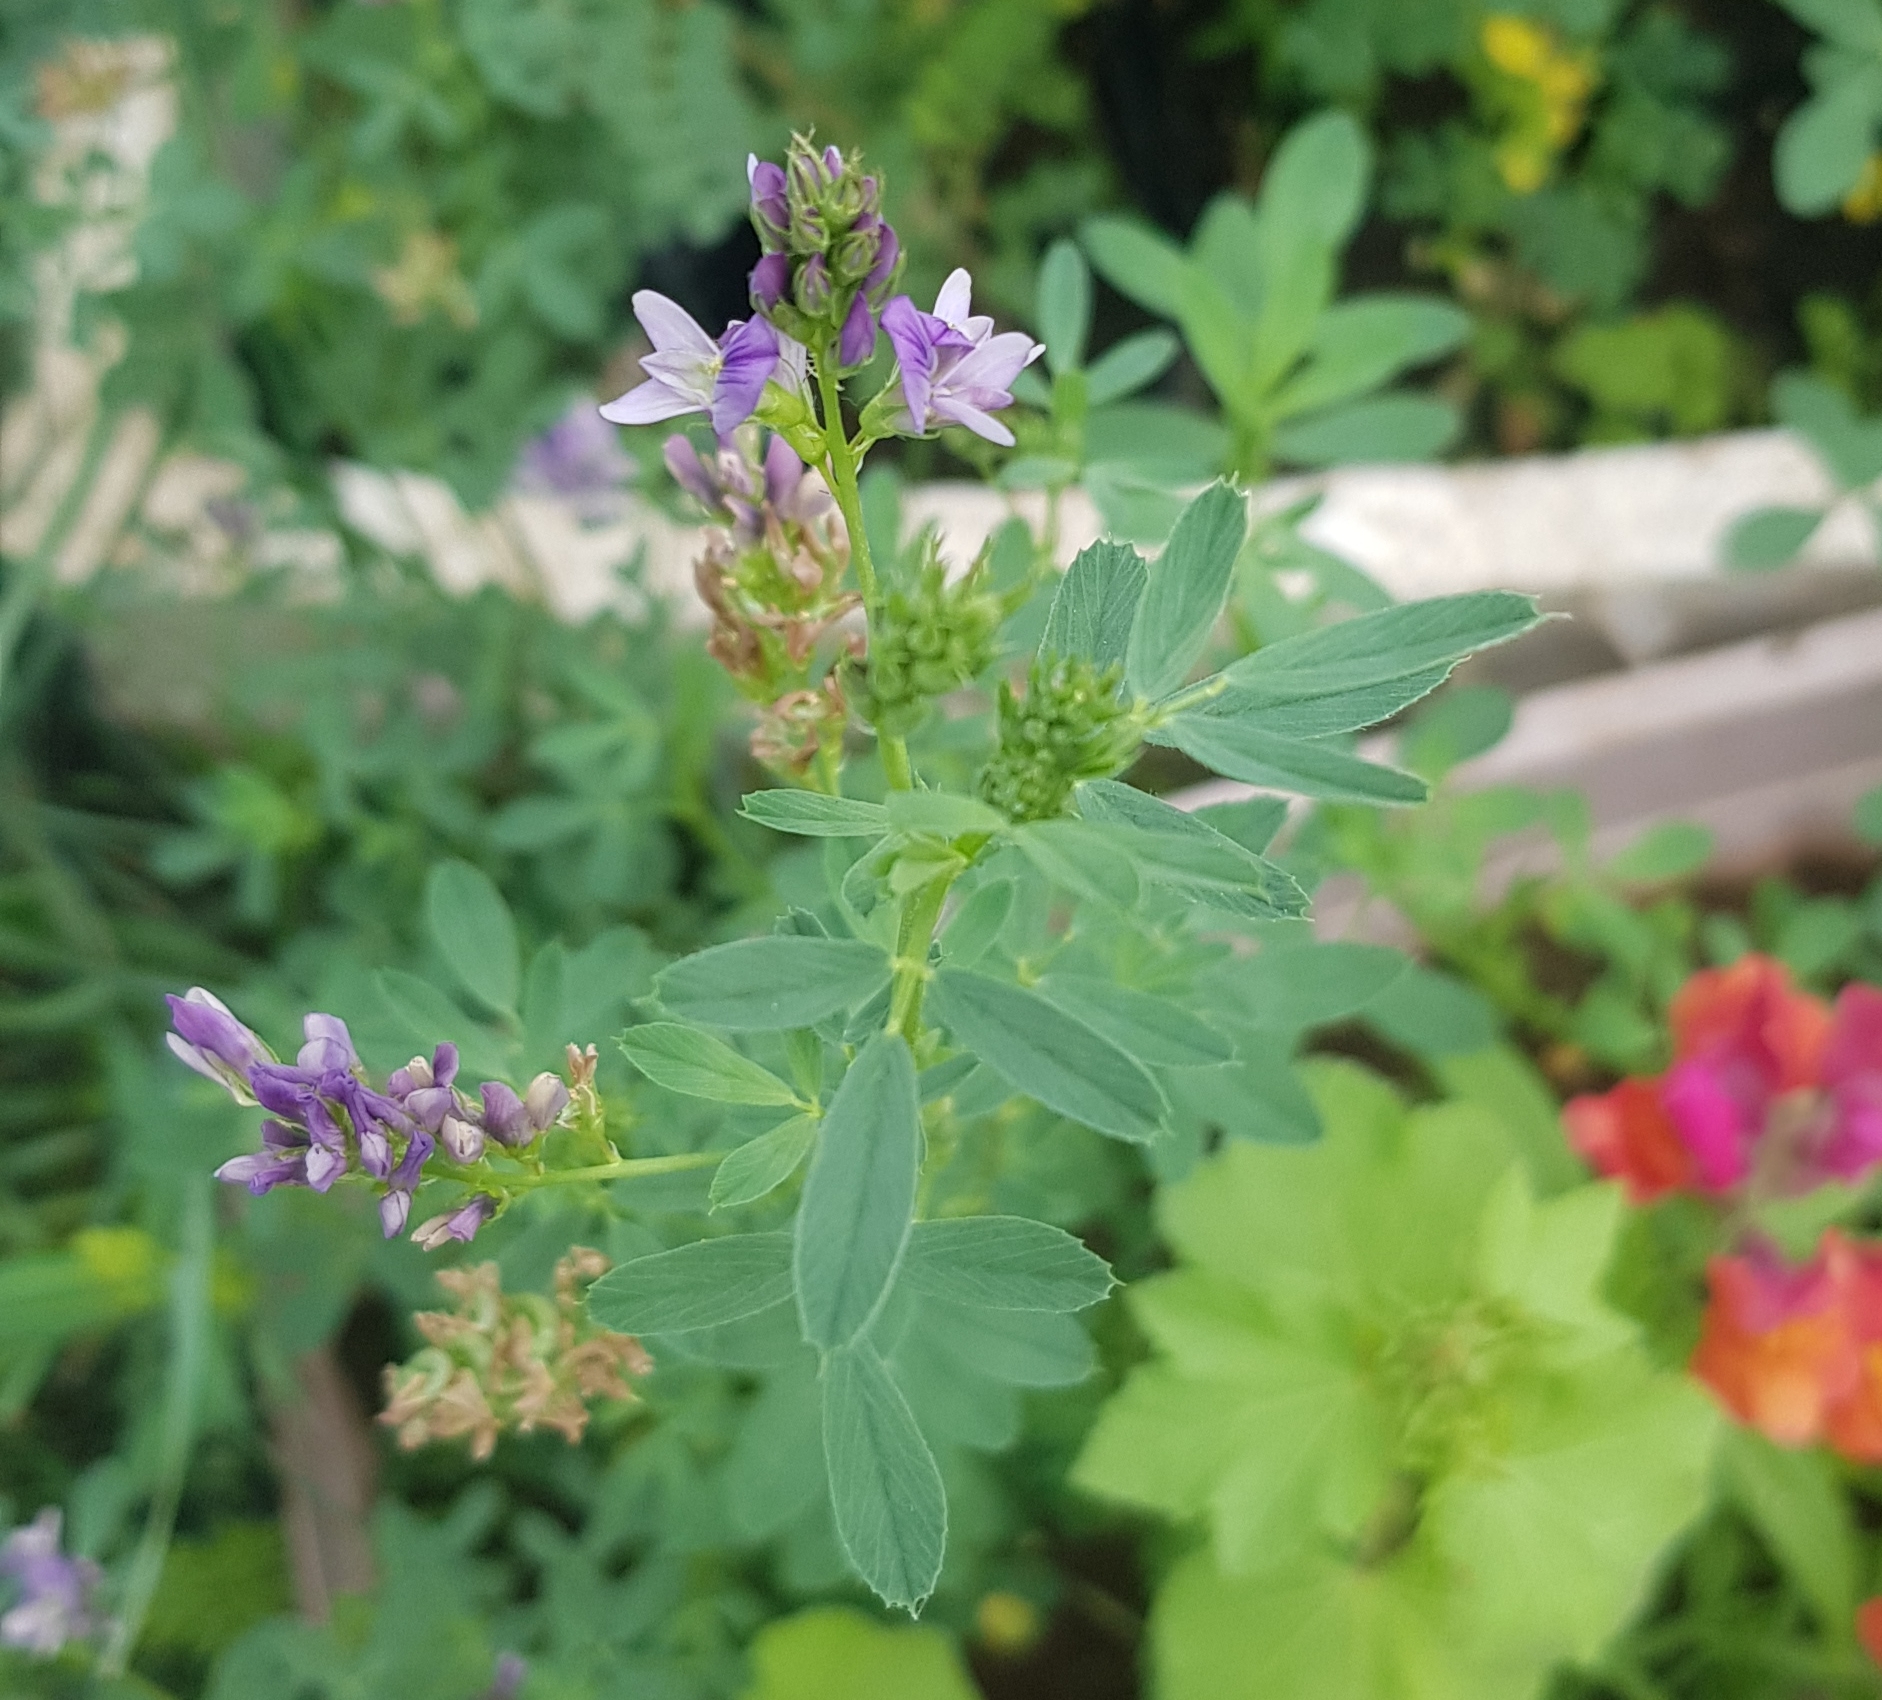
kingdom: Plantae
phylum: Tracheophyta
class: Magnoliopsida
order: Fabales
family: Fabaceae
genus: Medicago
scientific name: Medicago sativa
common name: Alfalfa
